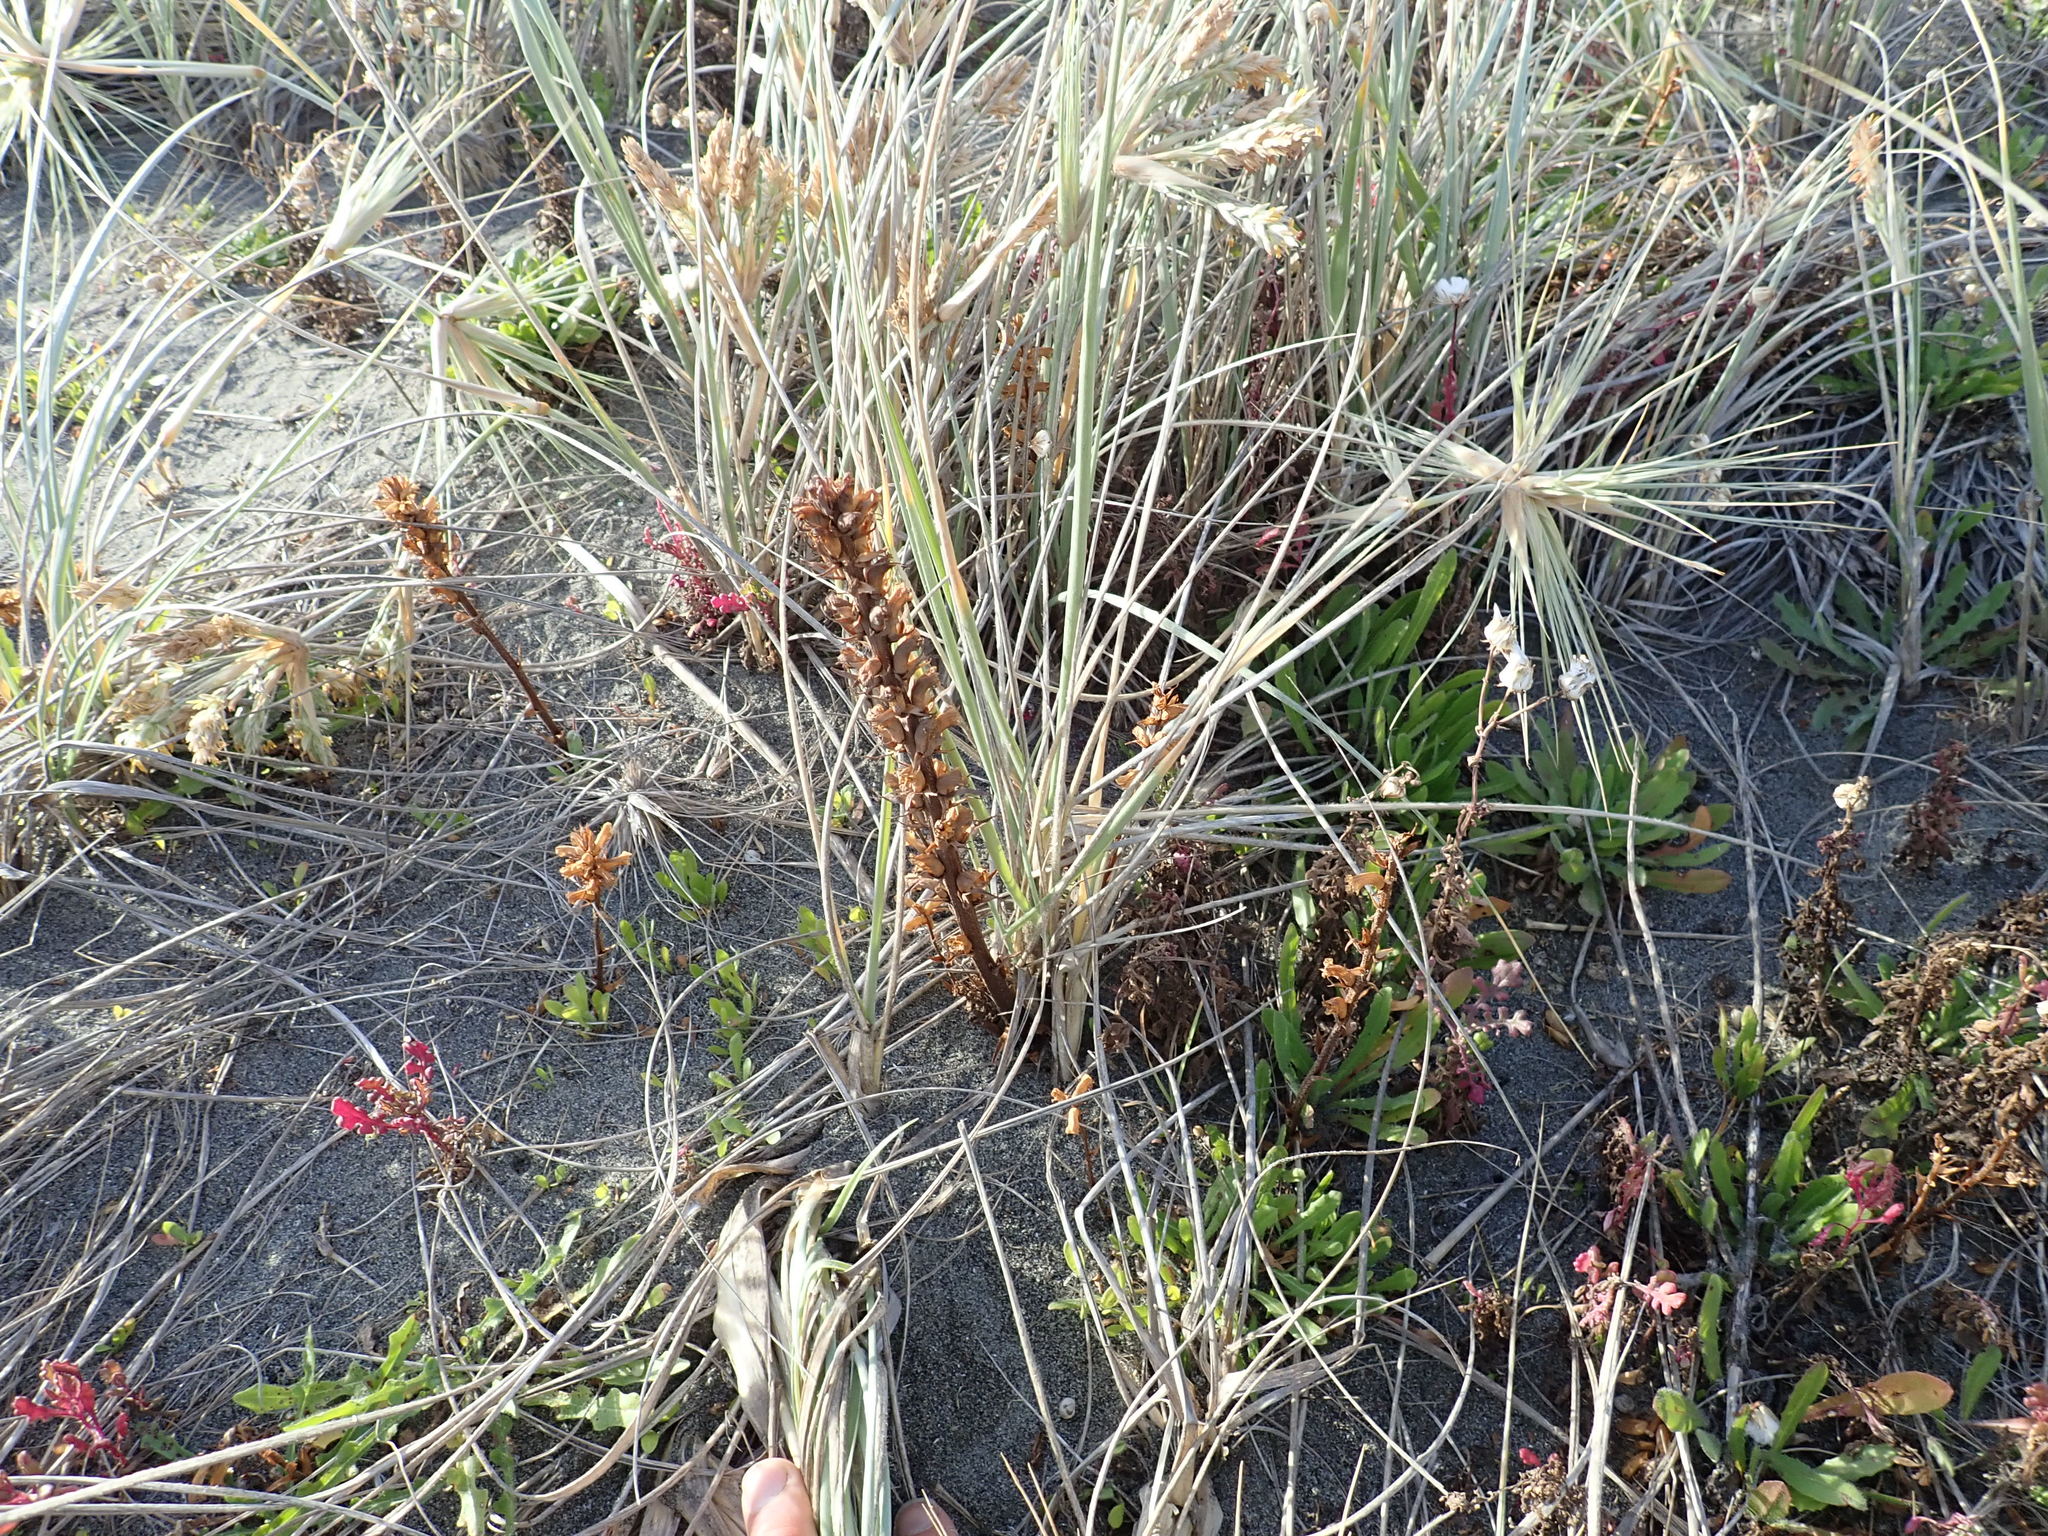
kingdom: Plantae
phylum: Tracheophyta
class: Magnoliopsida
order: Lamiales
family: Orobanchaceae
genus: Orobanche
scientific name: Orobanche minor
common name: Common broomrape
